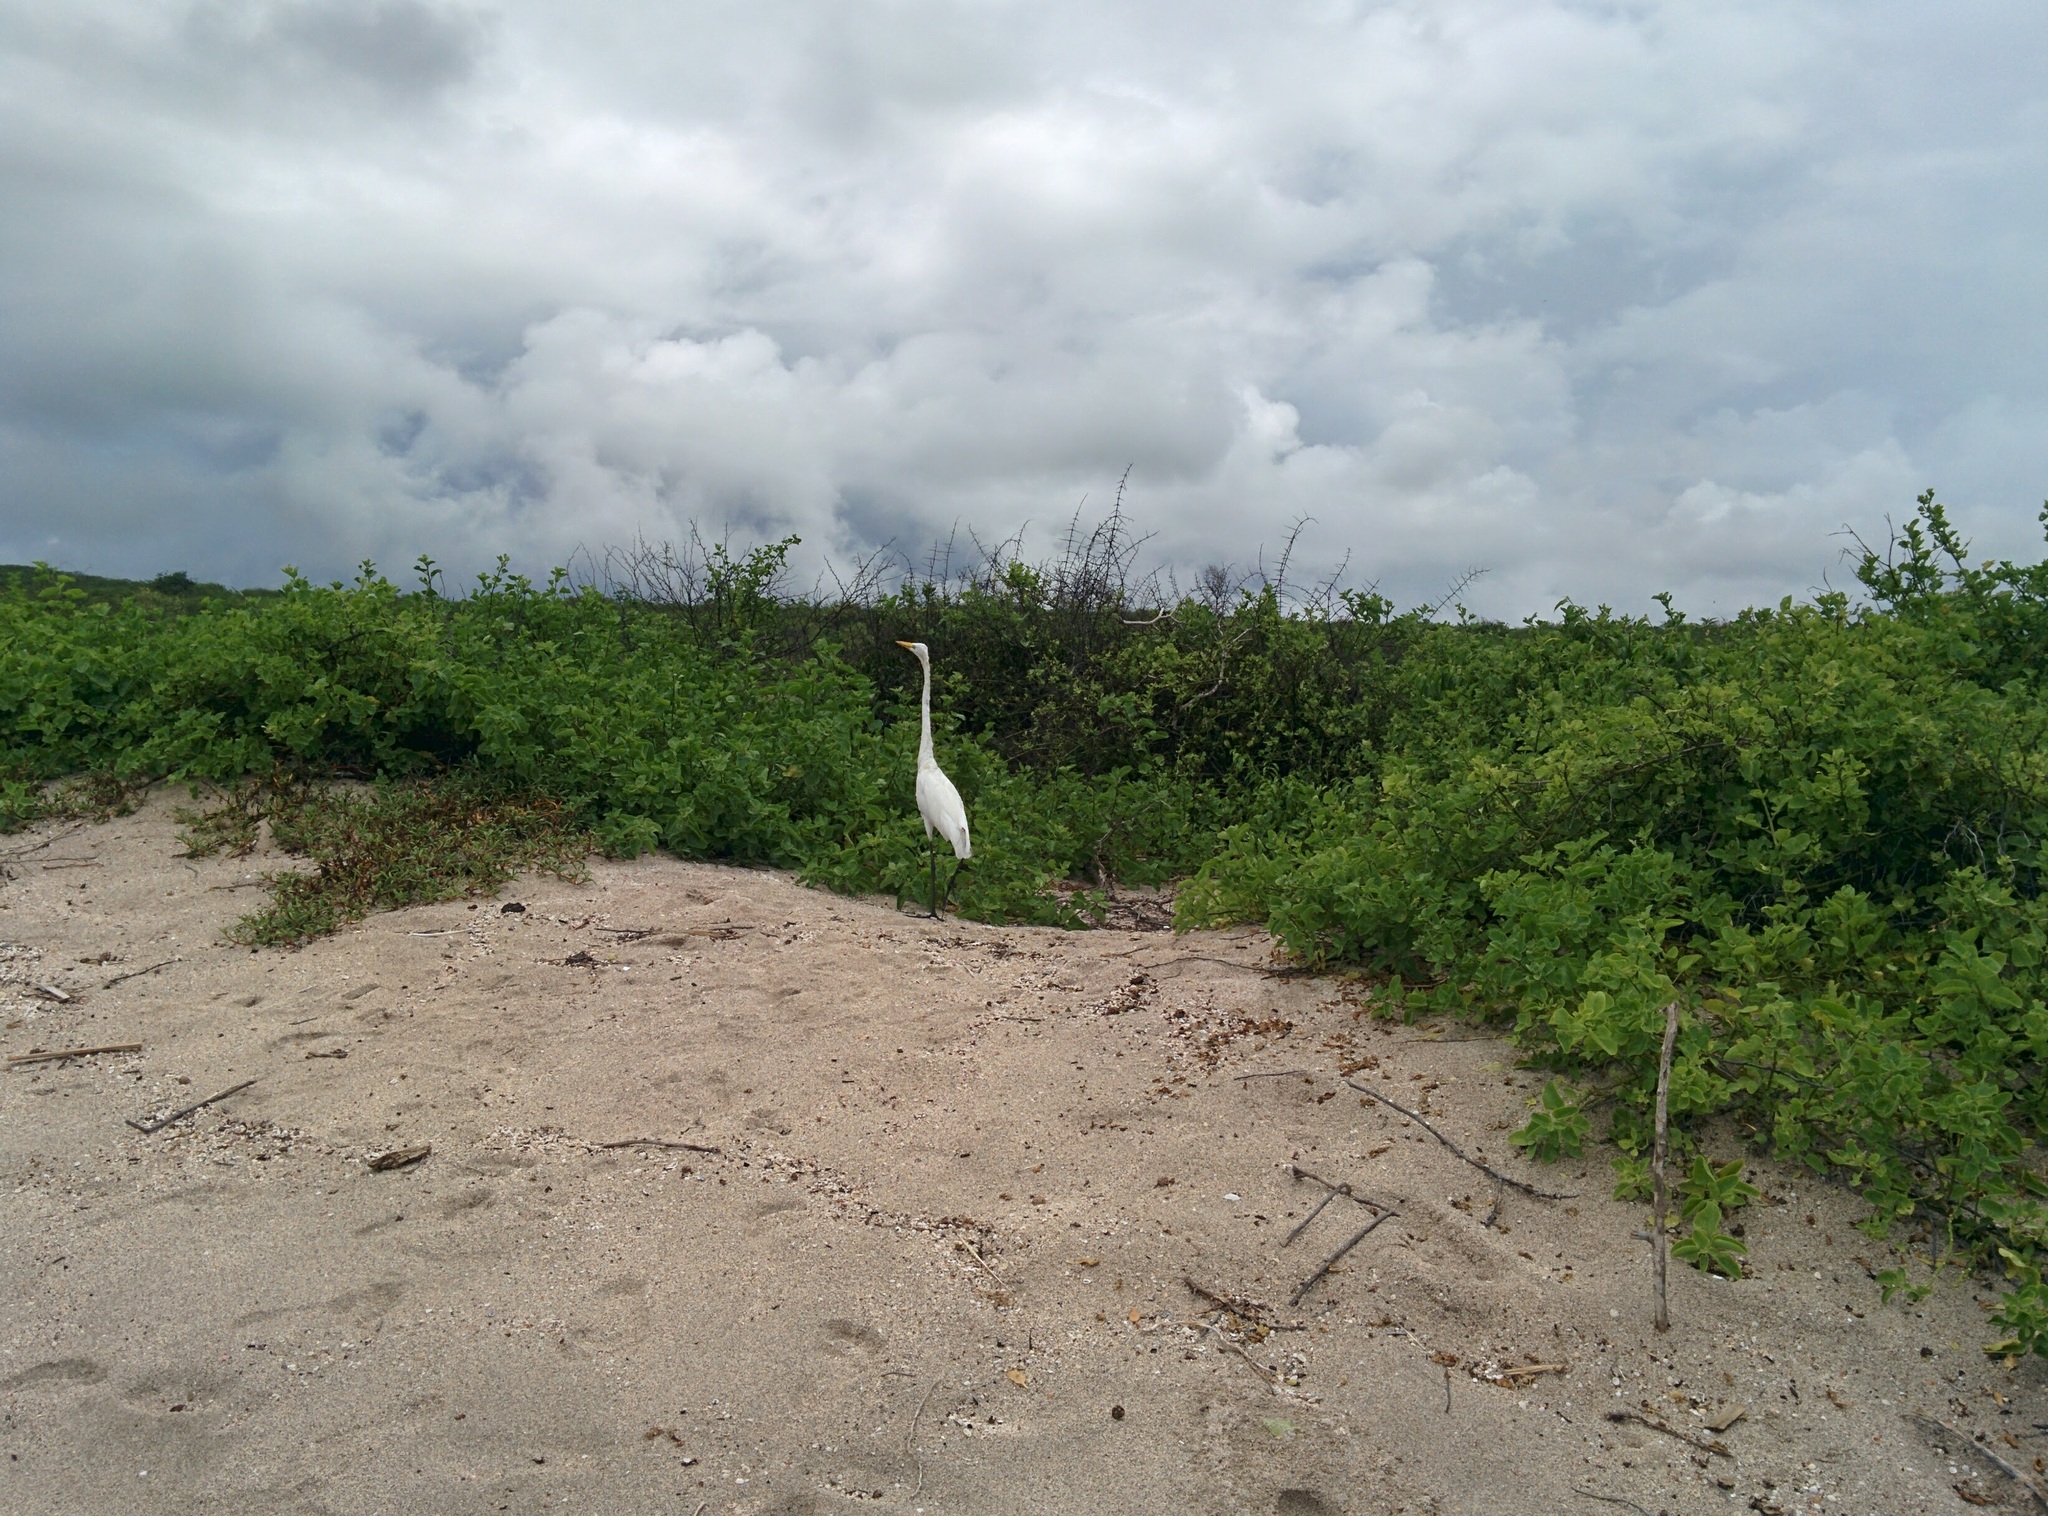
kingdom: Animalia
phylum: Chordata
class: Aves
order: Pelecaniformes
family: Ardeidae
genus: Ardea
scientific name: Ardea alba
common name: Great egret
